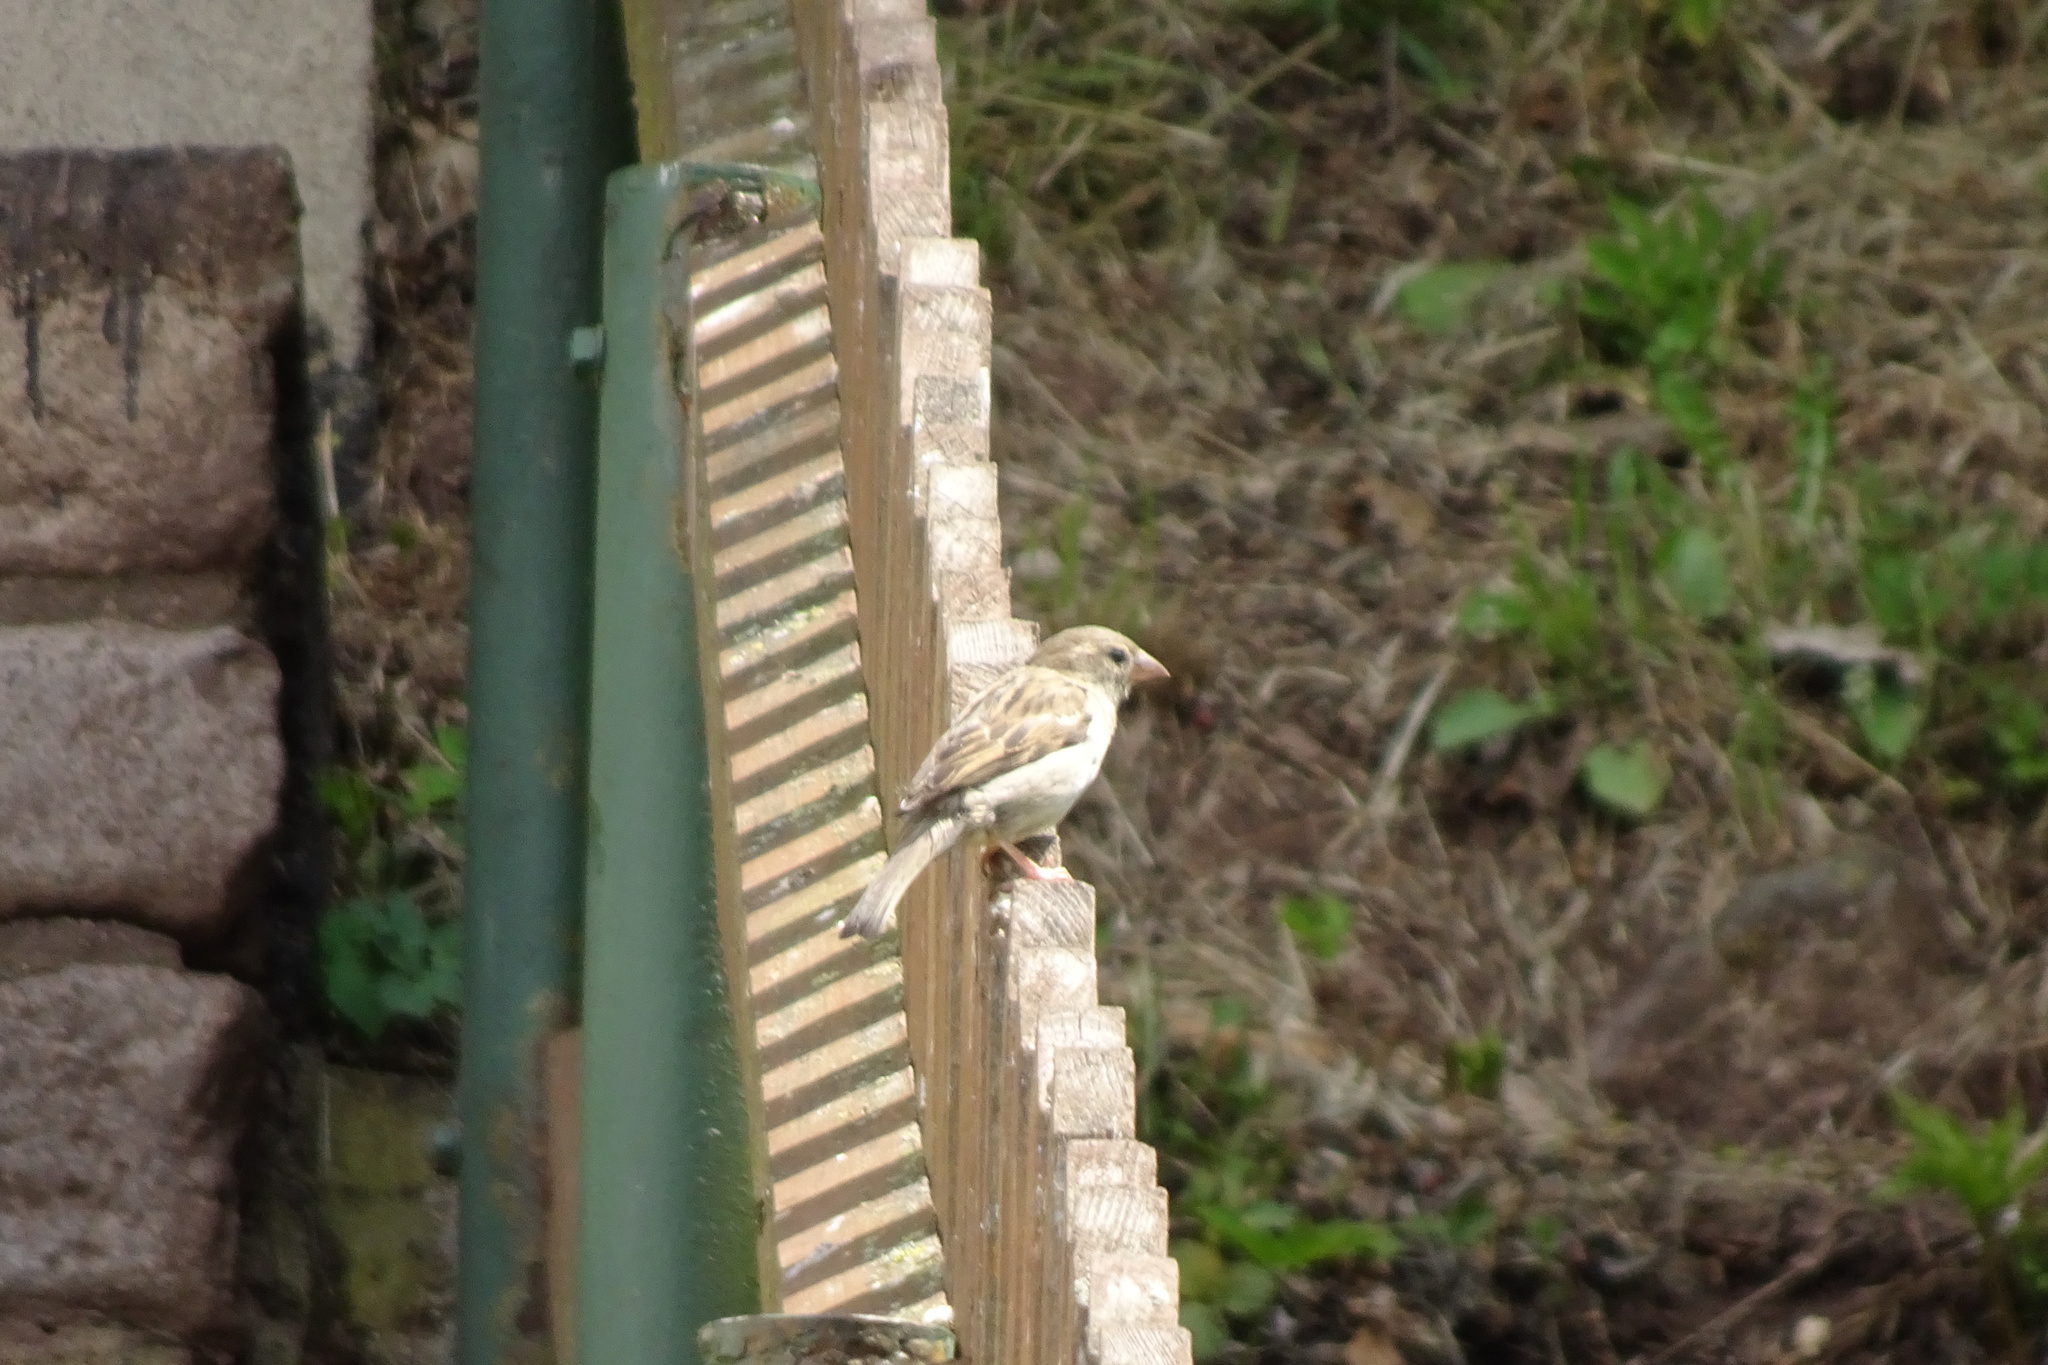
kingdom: Animalia
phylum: Chordata
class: Aves
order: Passeriformes
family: Passeridae
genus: Passer
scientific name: Passer domesticus
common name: House sparrow
